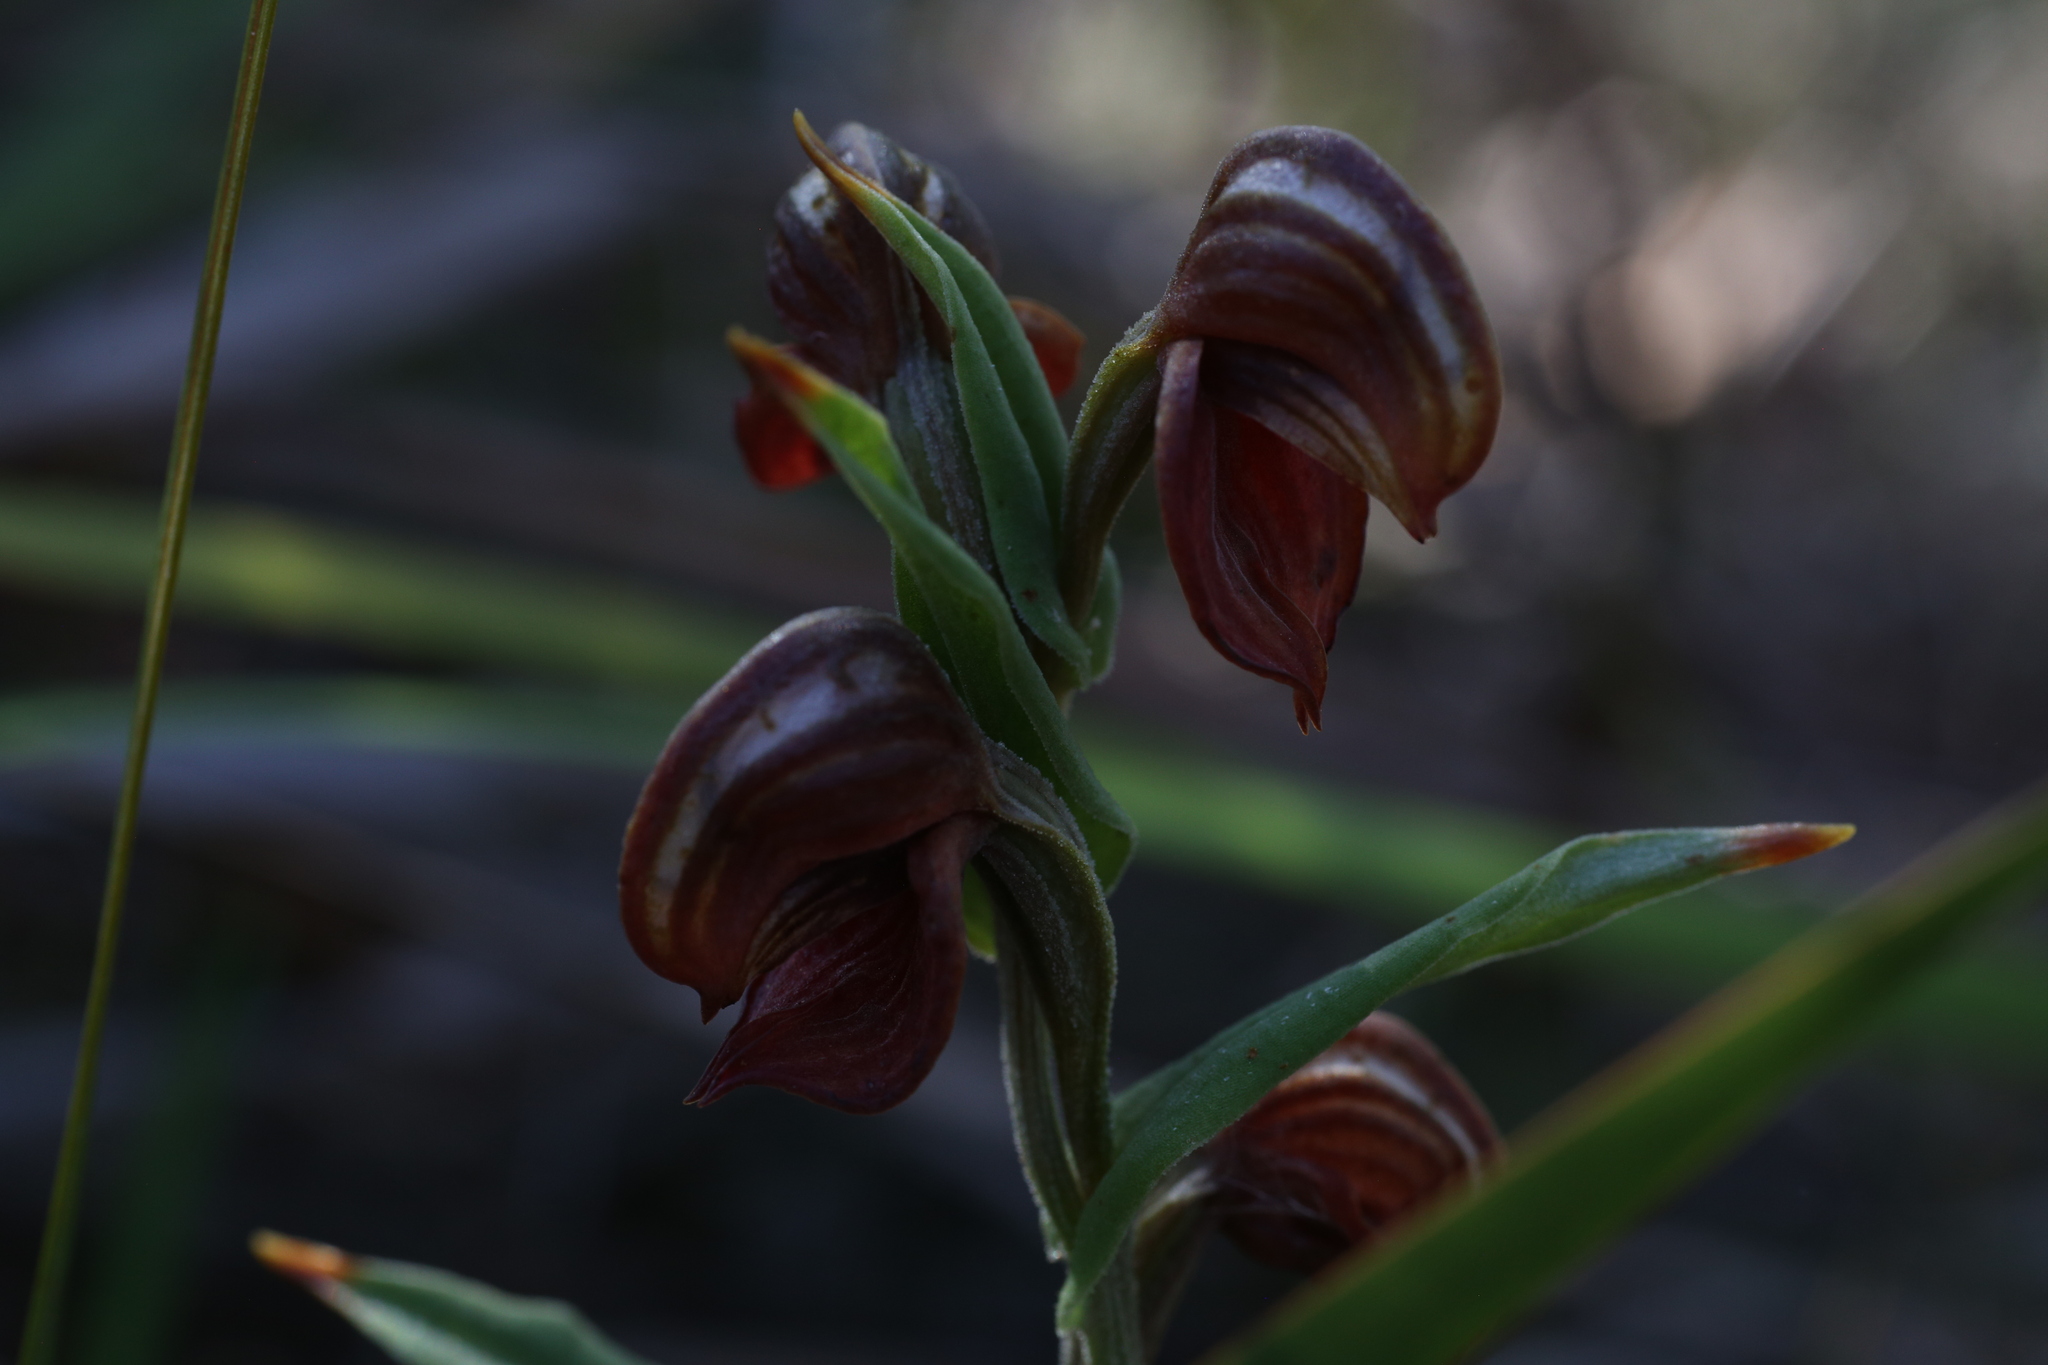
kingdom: Plantae
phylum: Tracheophyta
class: Liliopsida
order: Asparagales
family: Orchidaceae
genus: Pterostylis
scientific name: Pterostylis sanguinea
